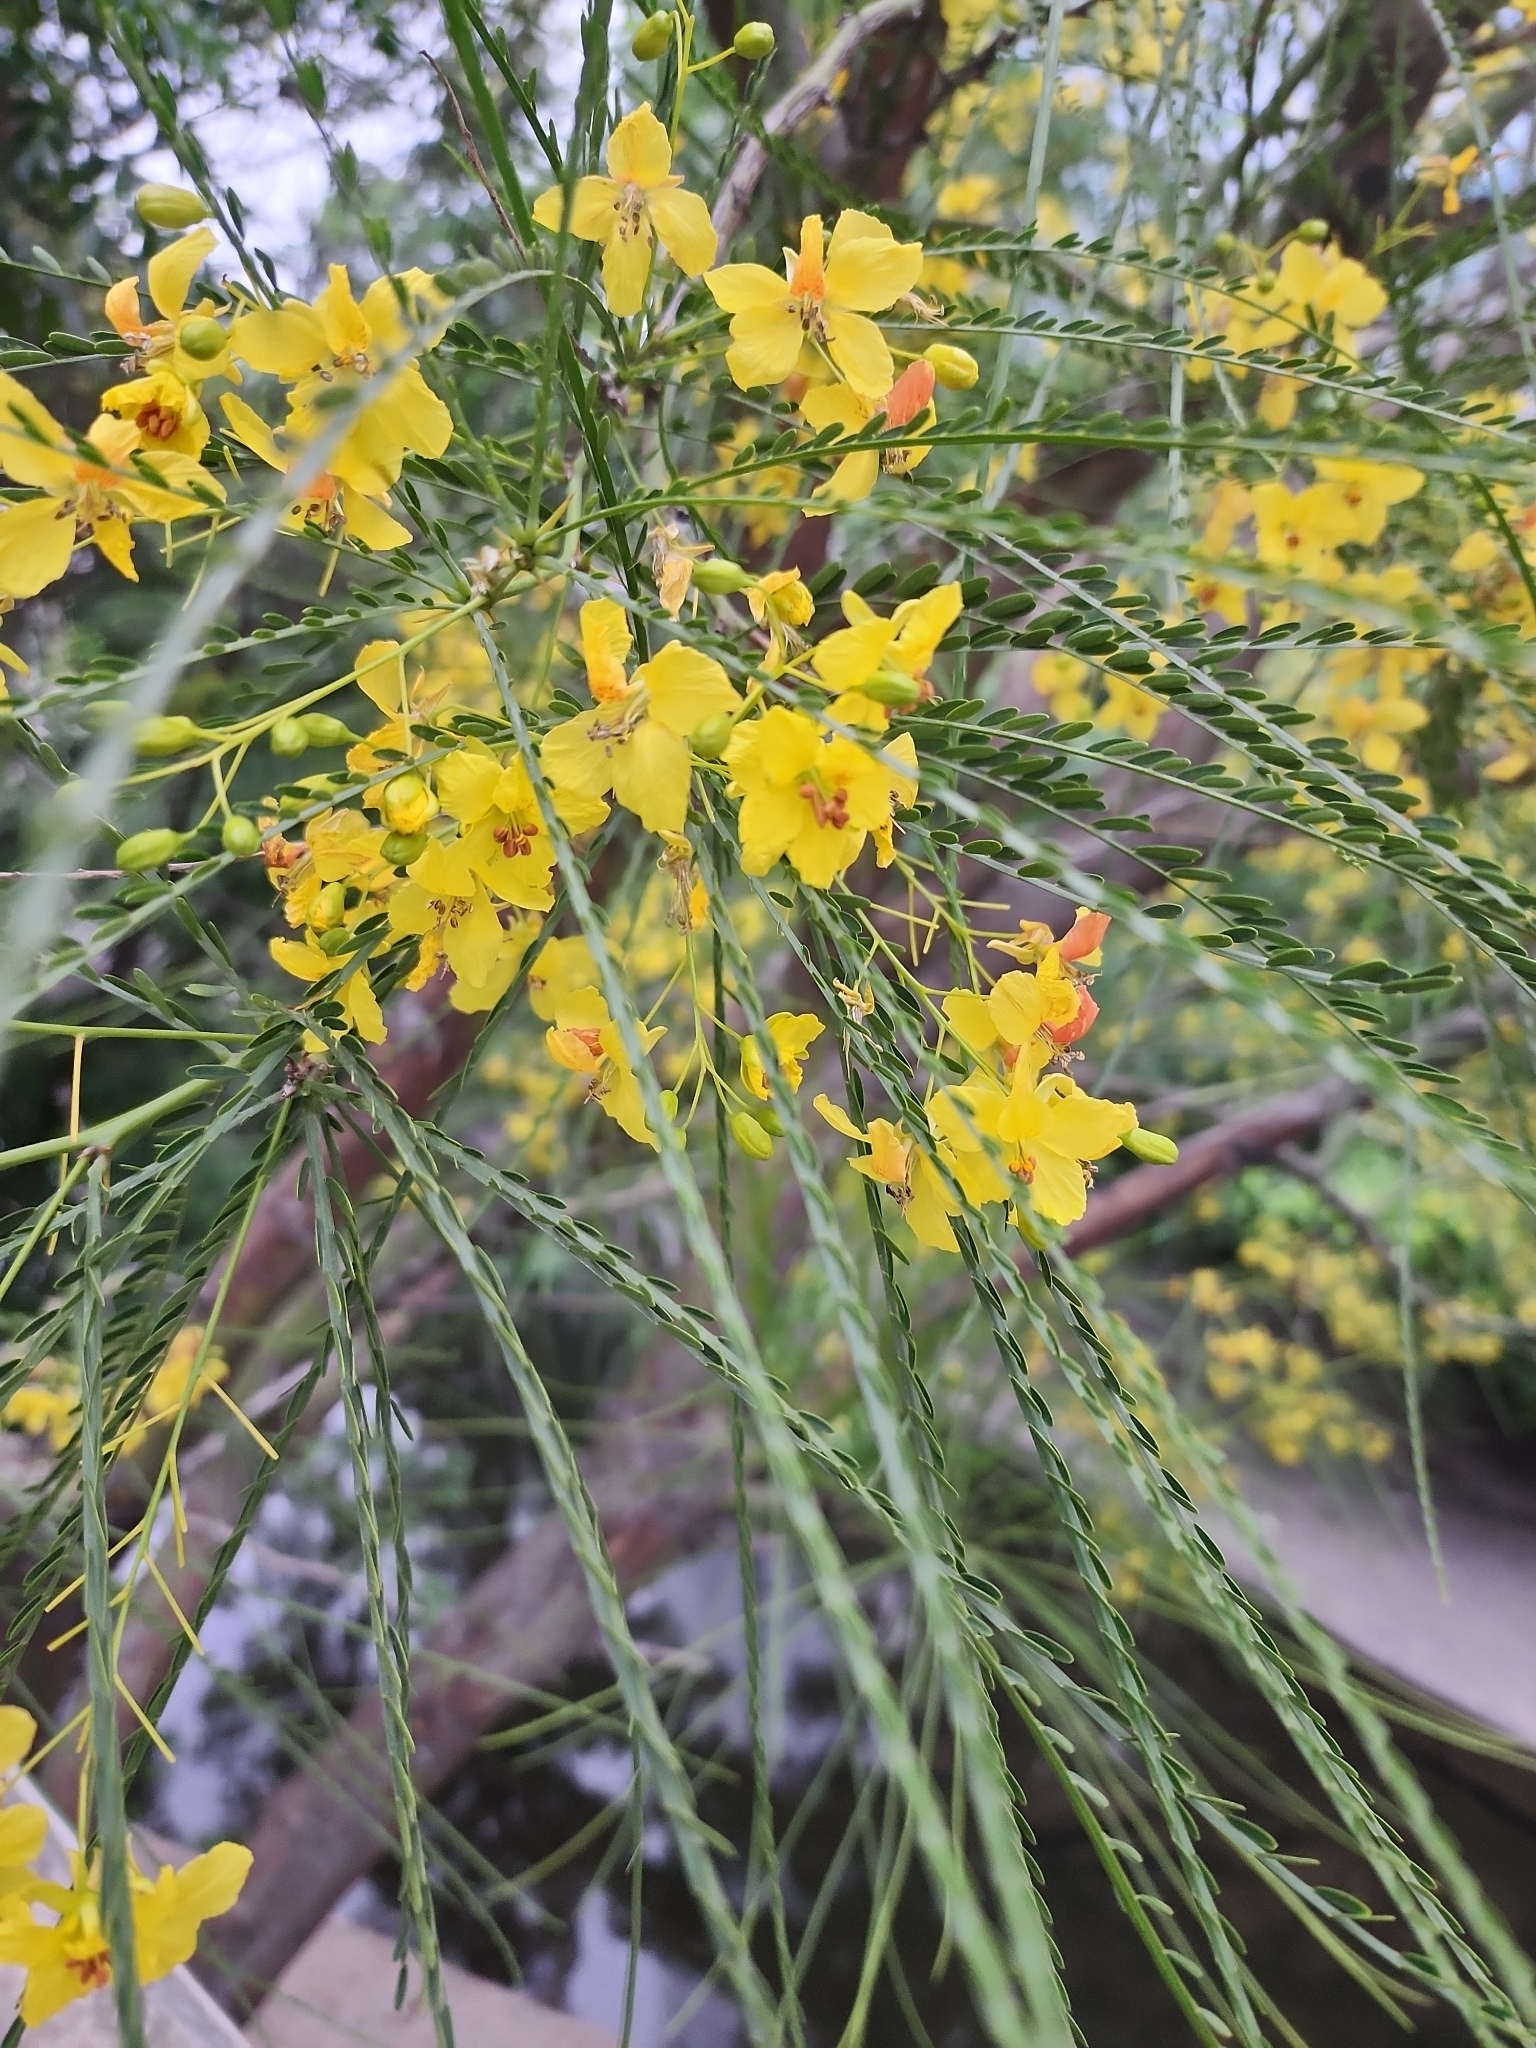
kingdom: Plantae
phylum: Tracheophyta
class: Magnoliopsida
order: Fabales
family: Fabaceae
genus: Parkinsonia
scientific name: Parkinsonia aculeata
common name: Jerusalem thorn
